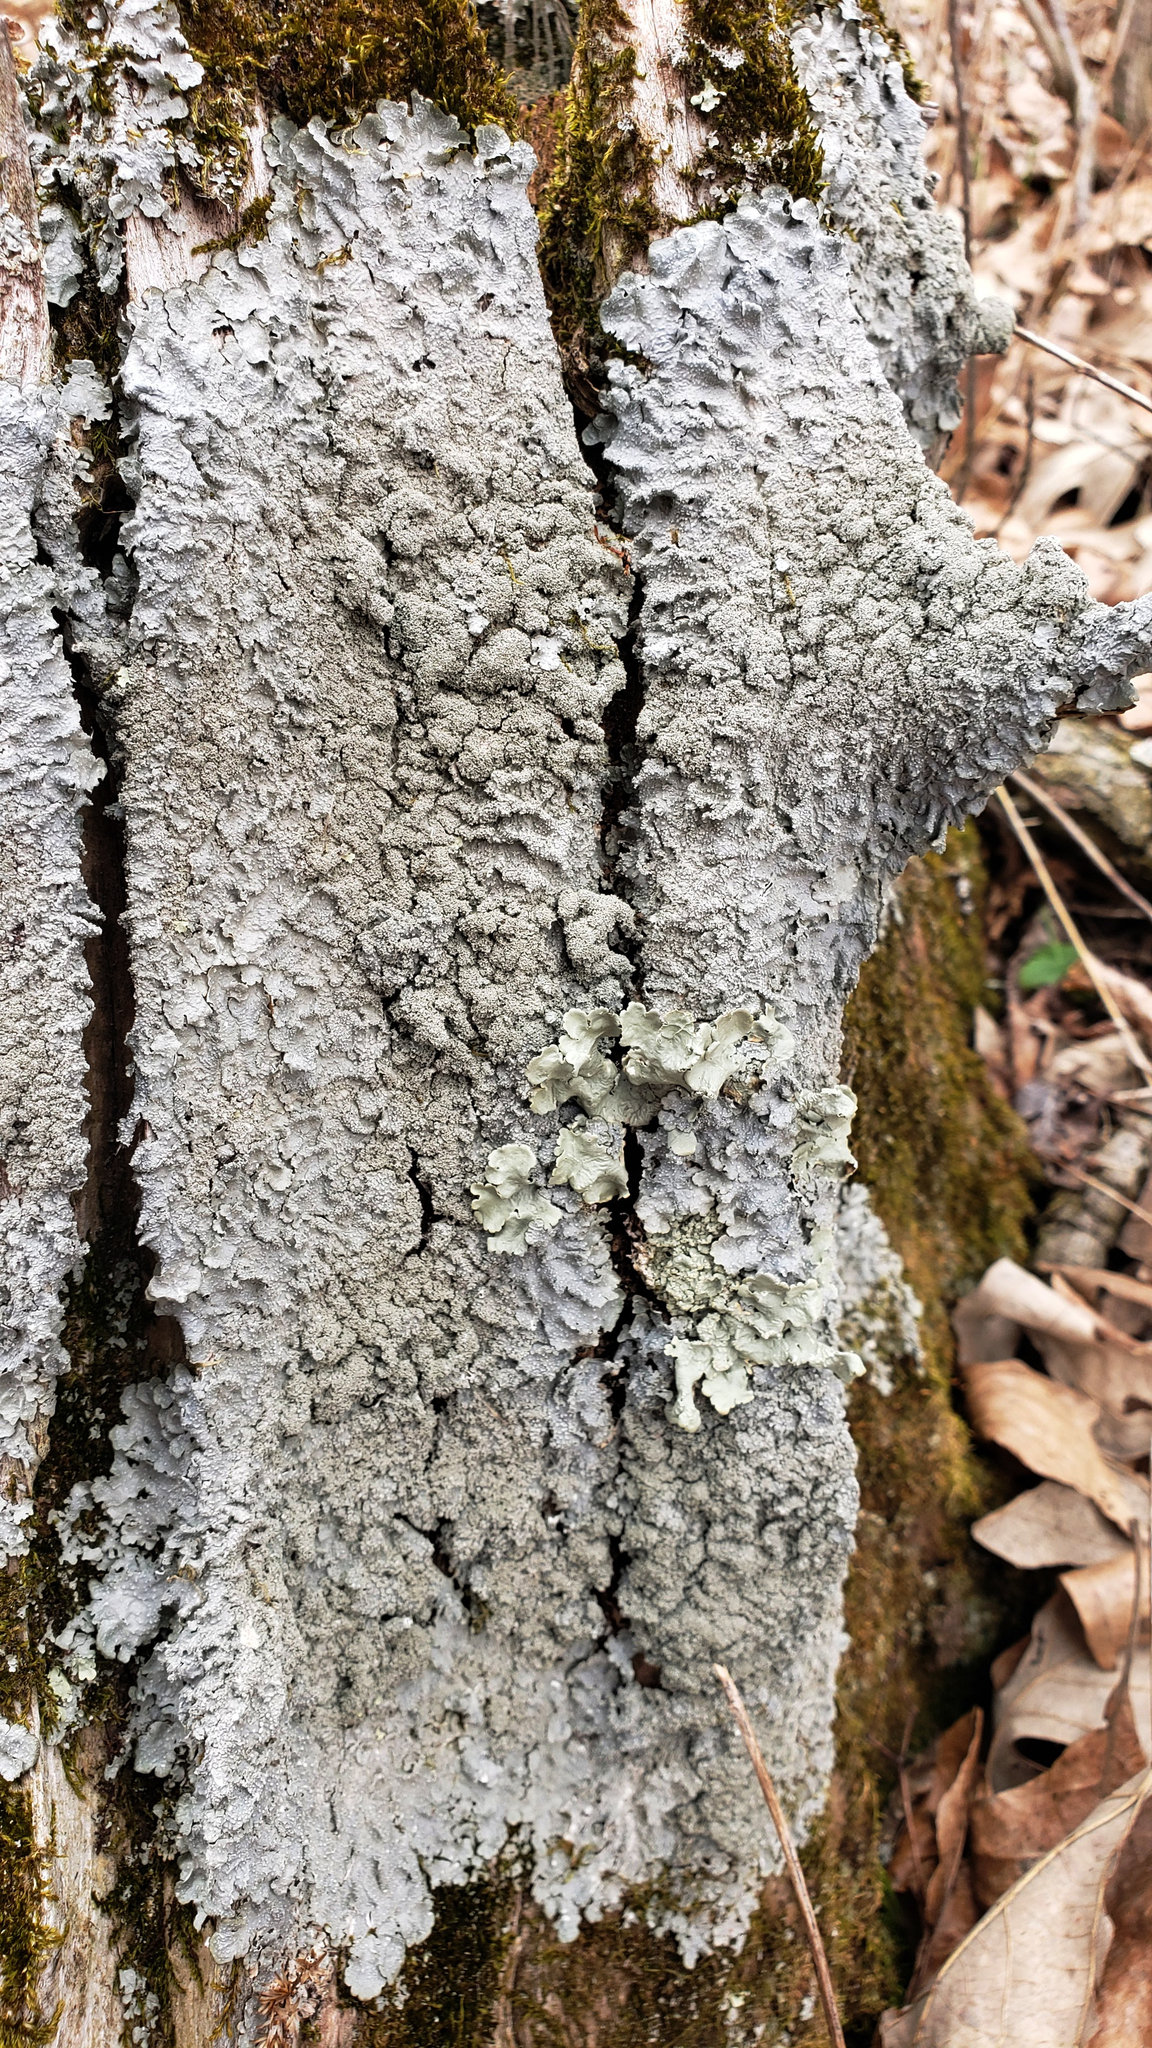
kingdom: Fungi
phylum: Ascomycota
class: Lecanoromycetes
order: Lecanorales
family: Parmeliaceae
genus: Punctelia
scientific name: Punctelia missouriensis
